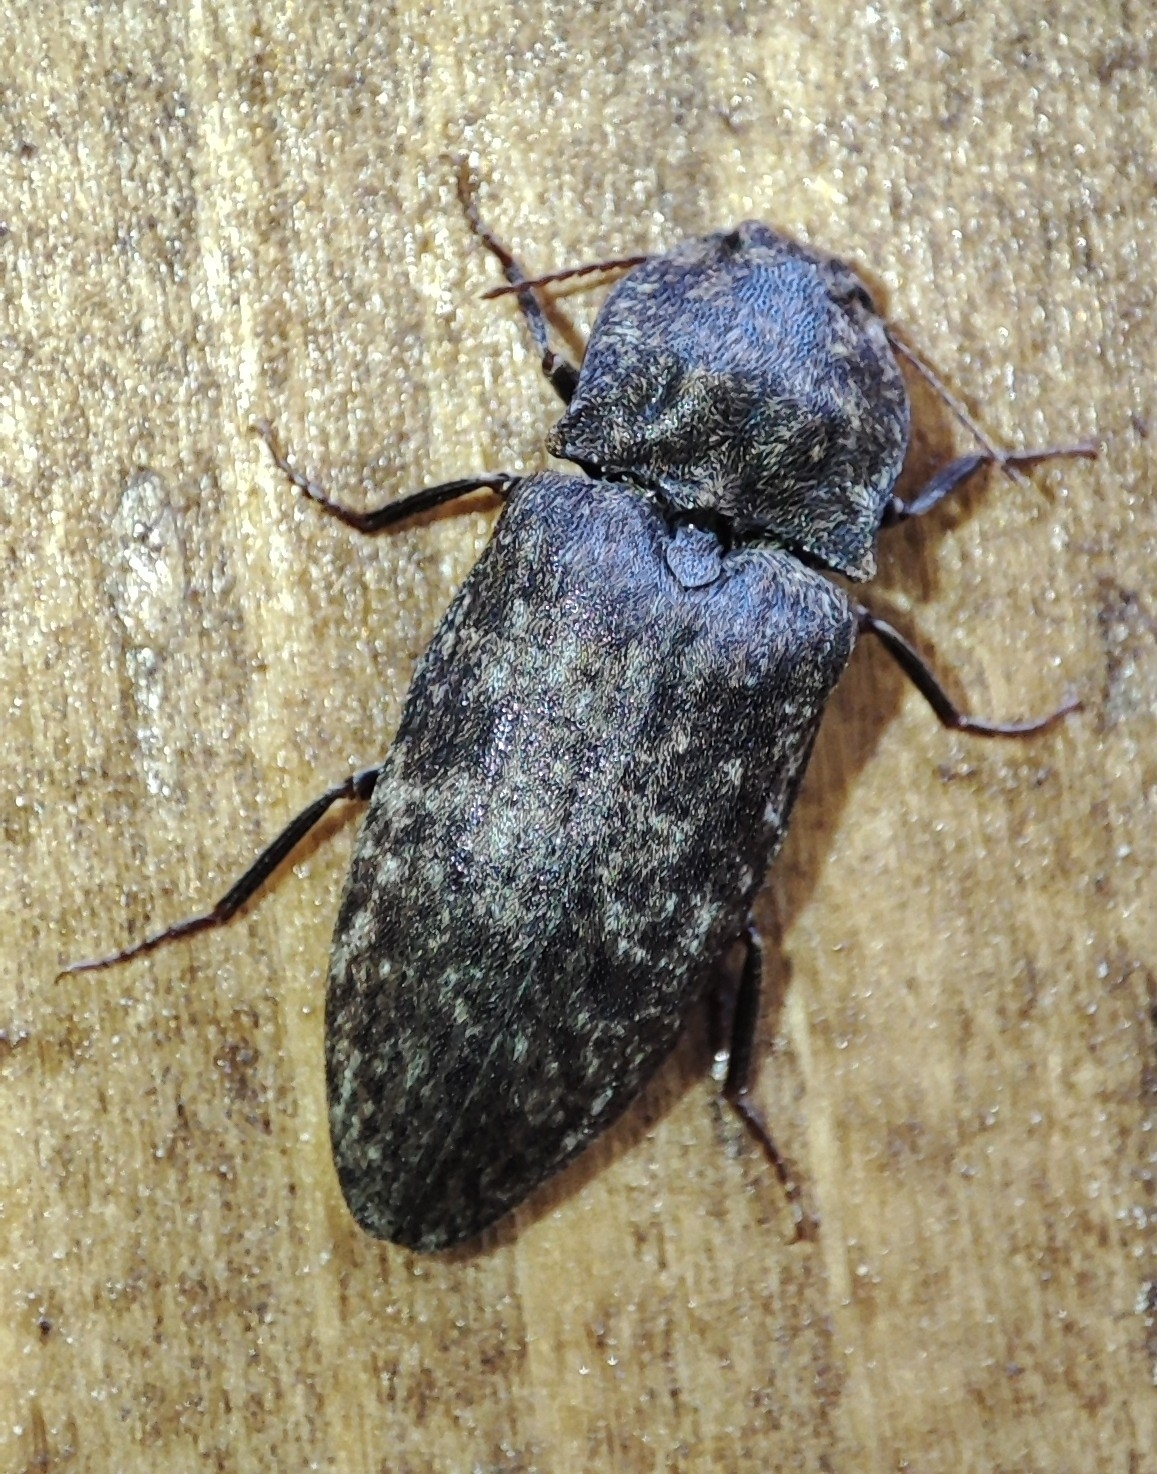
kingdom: Animalia
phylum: Arthropoda
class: Insecta
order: Coleoptera
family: Elateridae
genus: Agrypnus
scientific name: Agrypnus murinus
